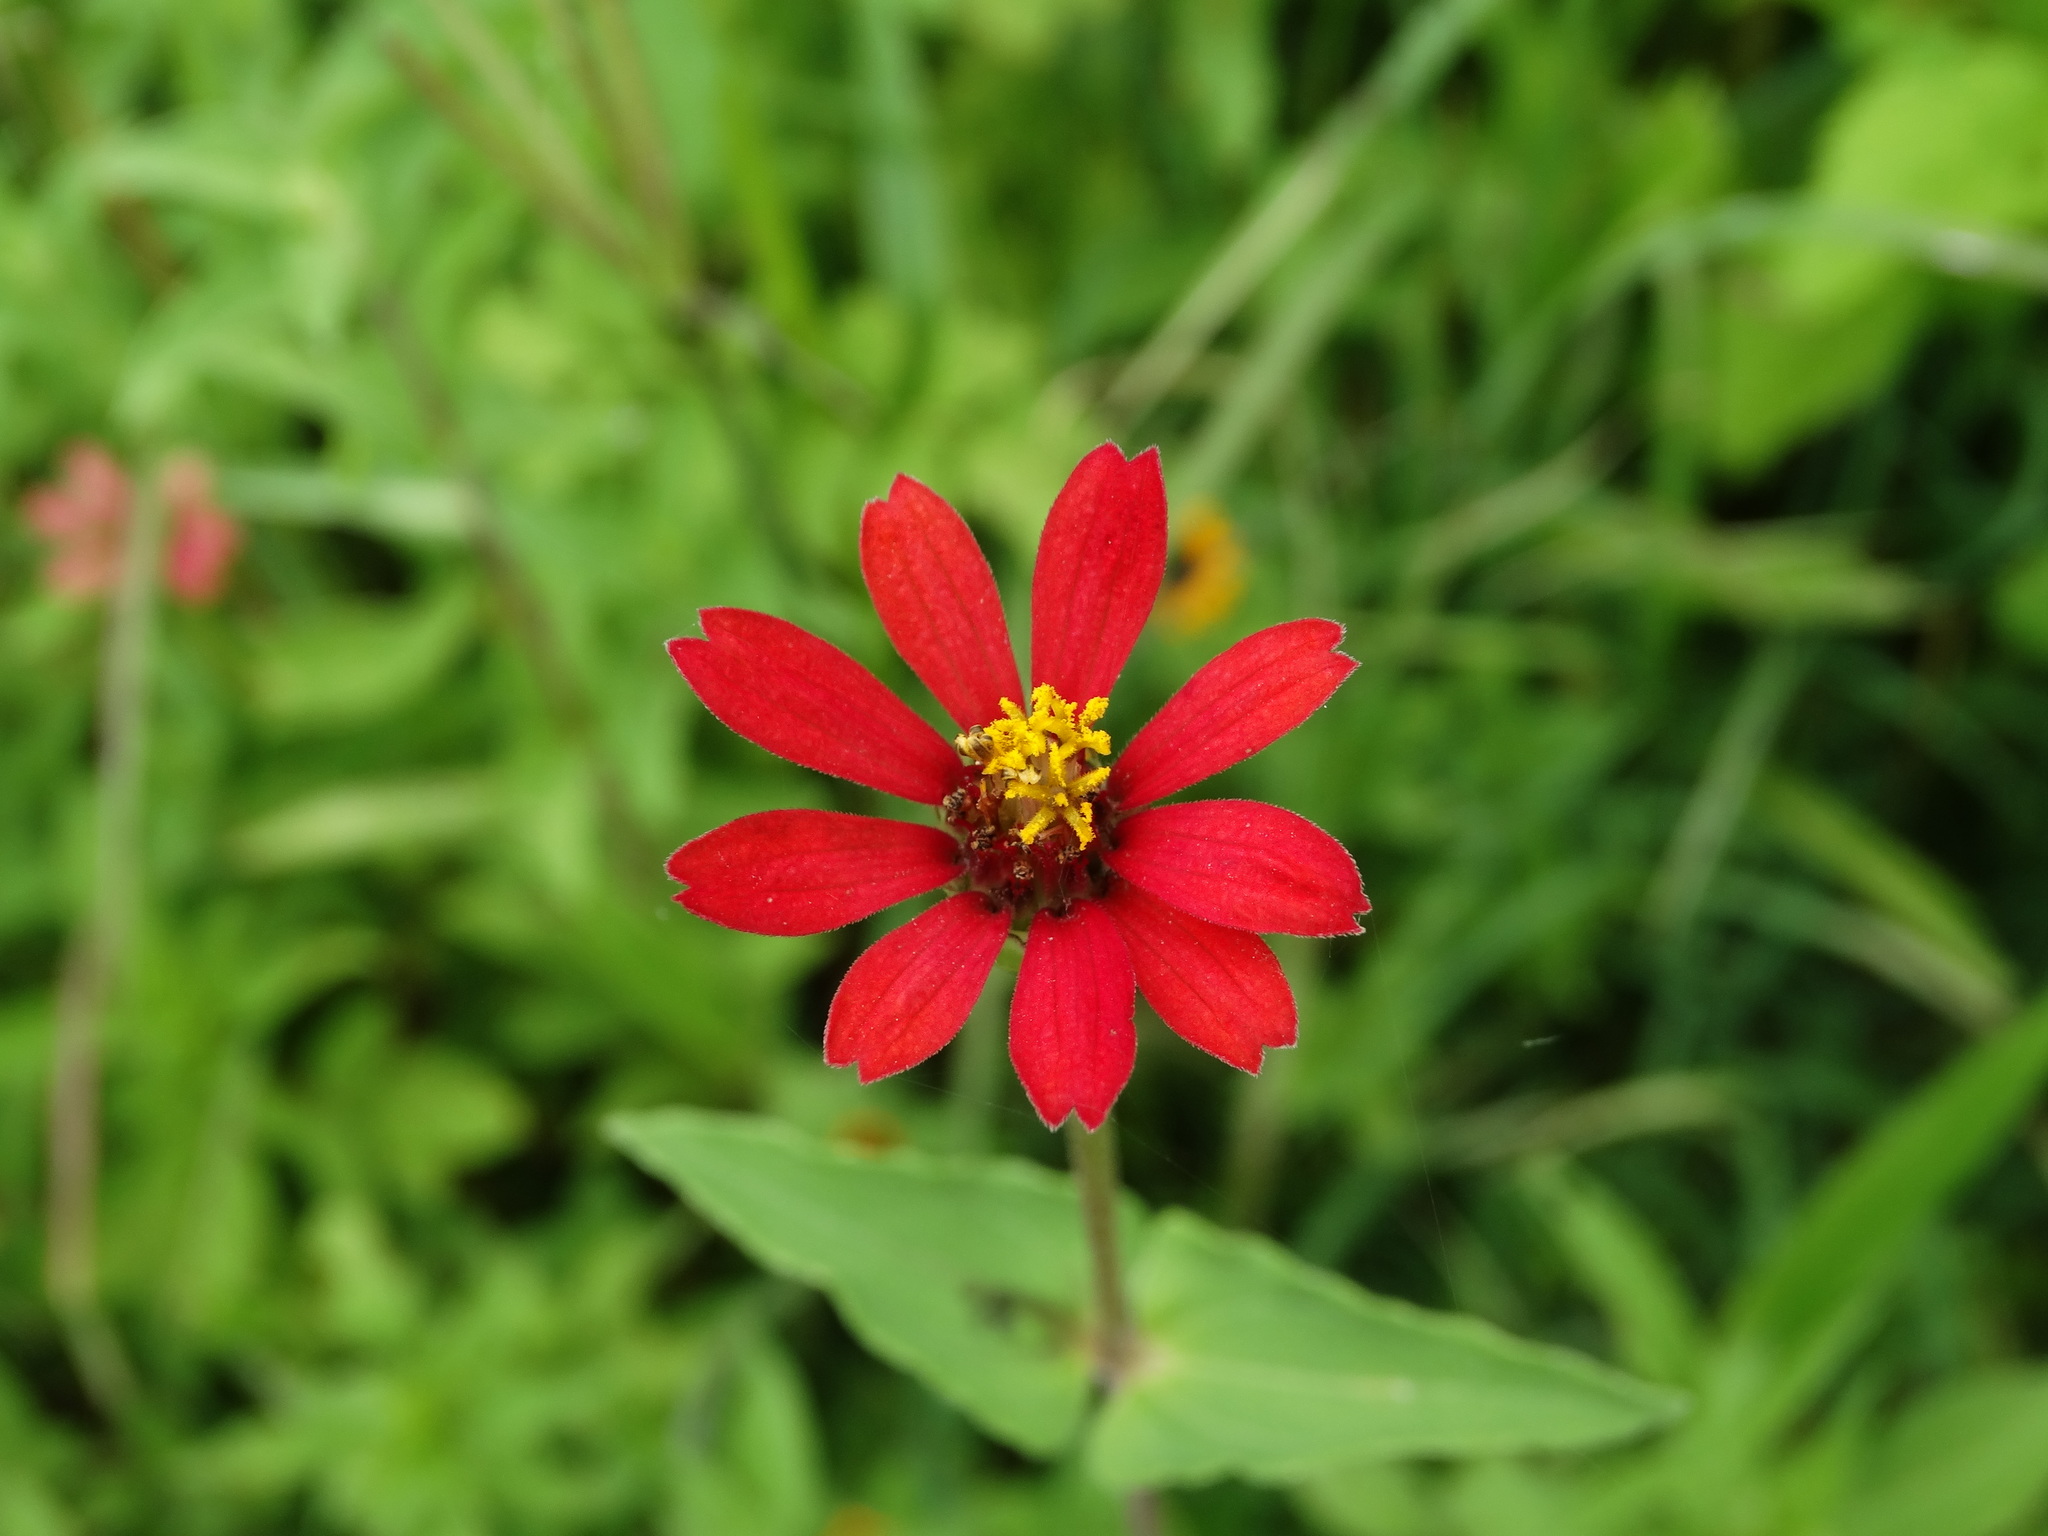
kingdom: Plantae
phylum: Tracheophyta
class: Magnoliopsida
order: Asterales
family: Asteraceae
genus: Zinnia
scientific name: Zinnia peruviana
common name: Peruvian zinnia
